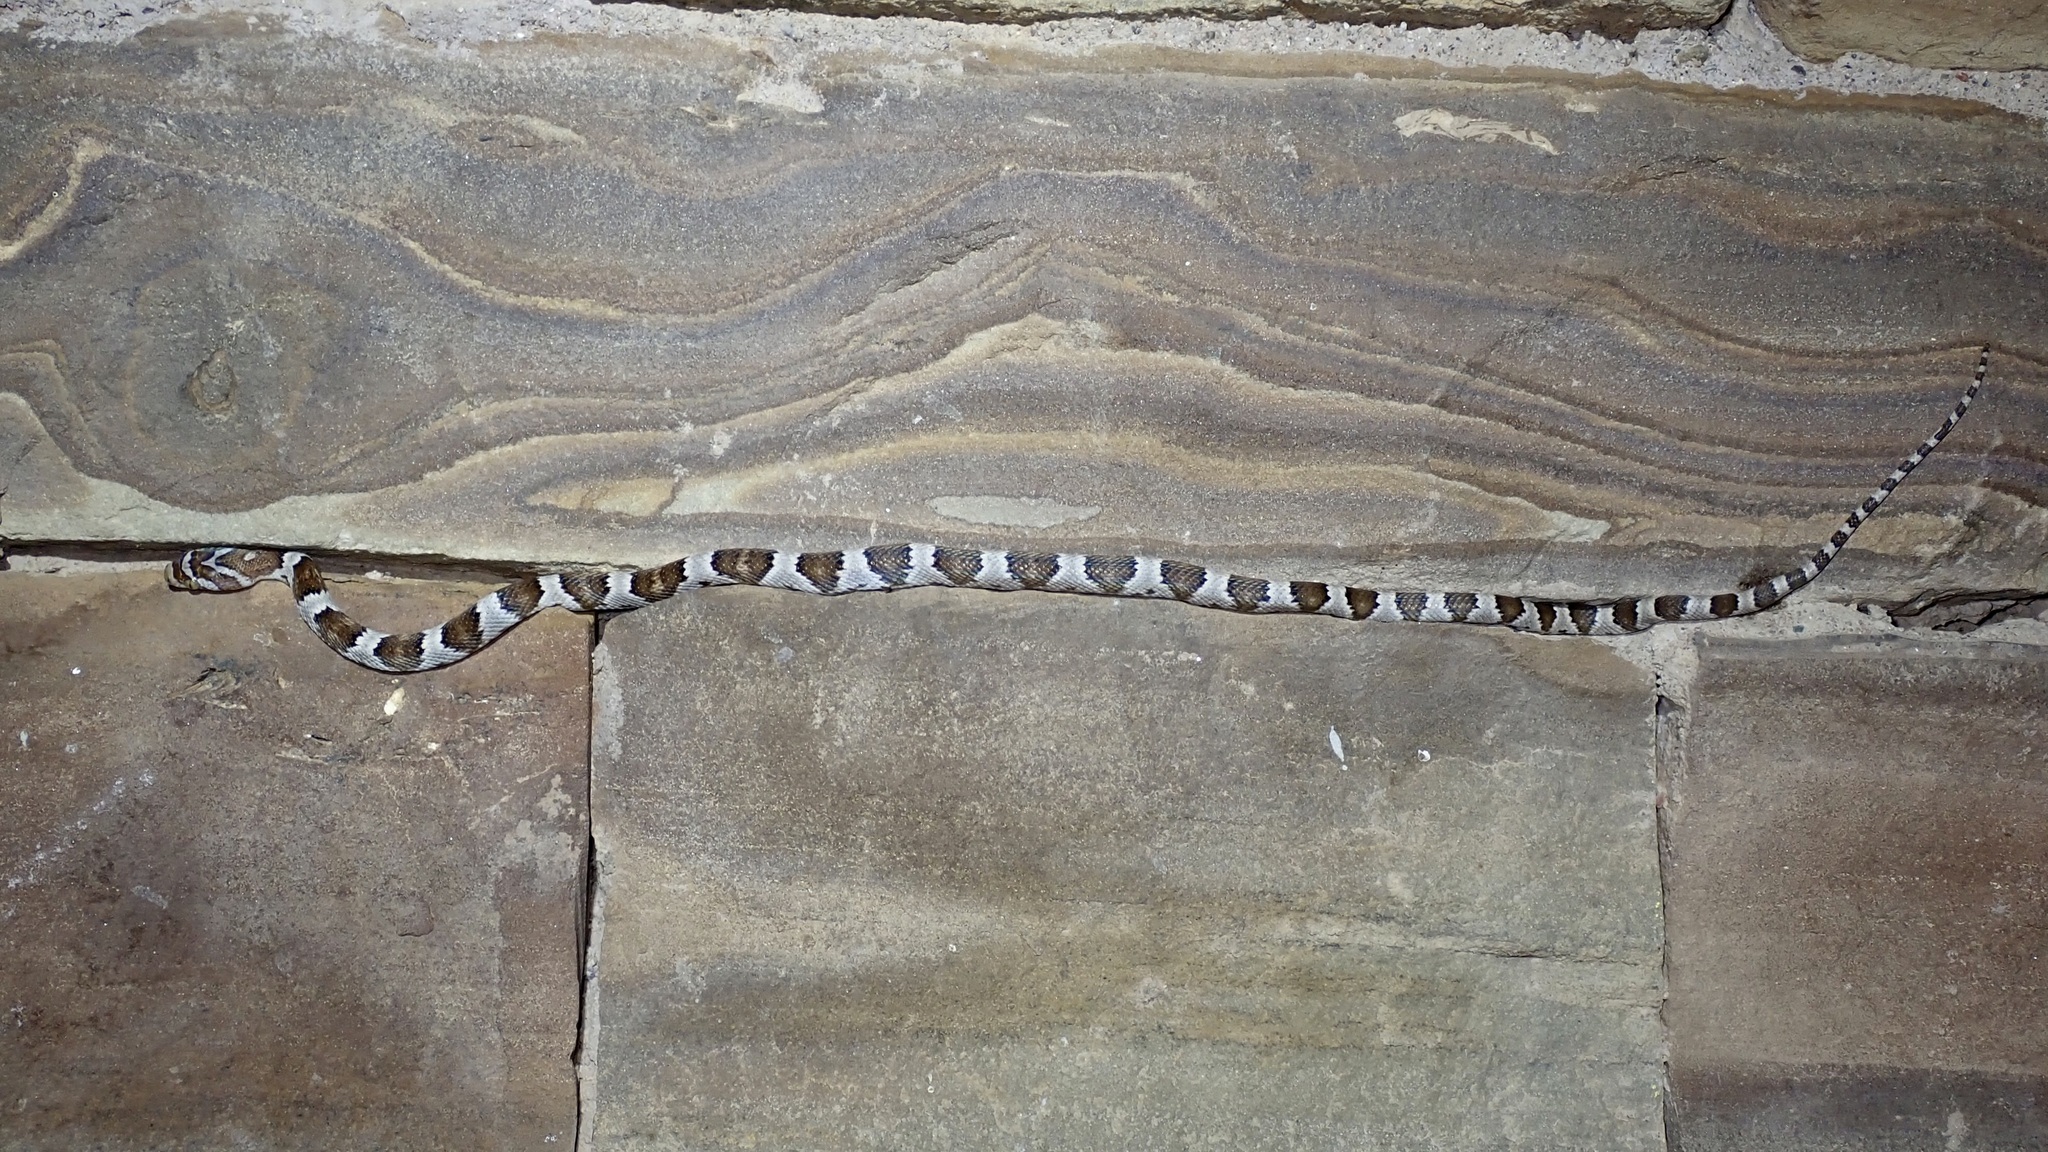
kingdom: Animalia
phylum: Chordata
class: Squamata
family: Colubridae
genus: Trimorphodon
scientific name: Trimorphodon lambda
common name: Sonoran lyre snake
